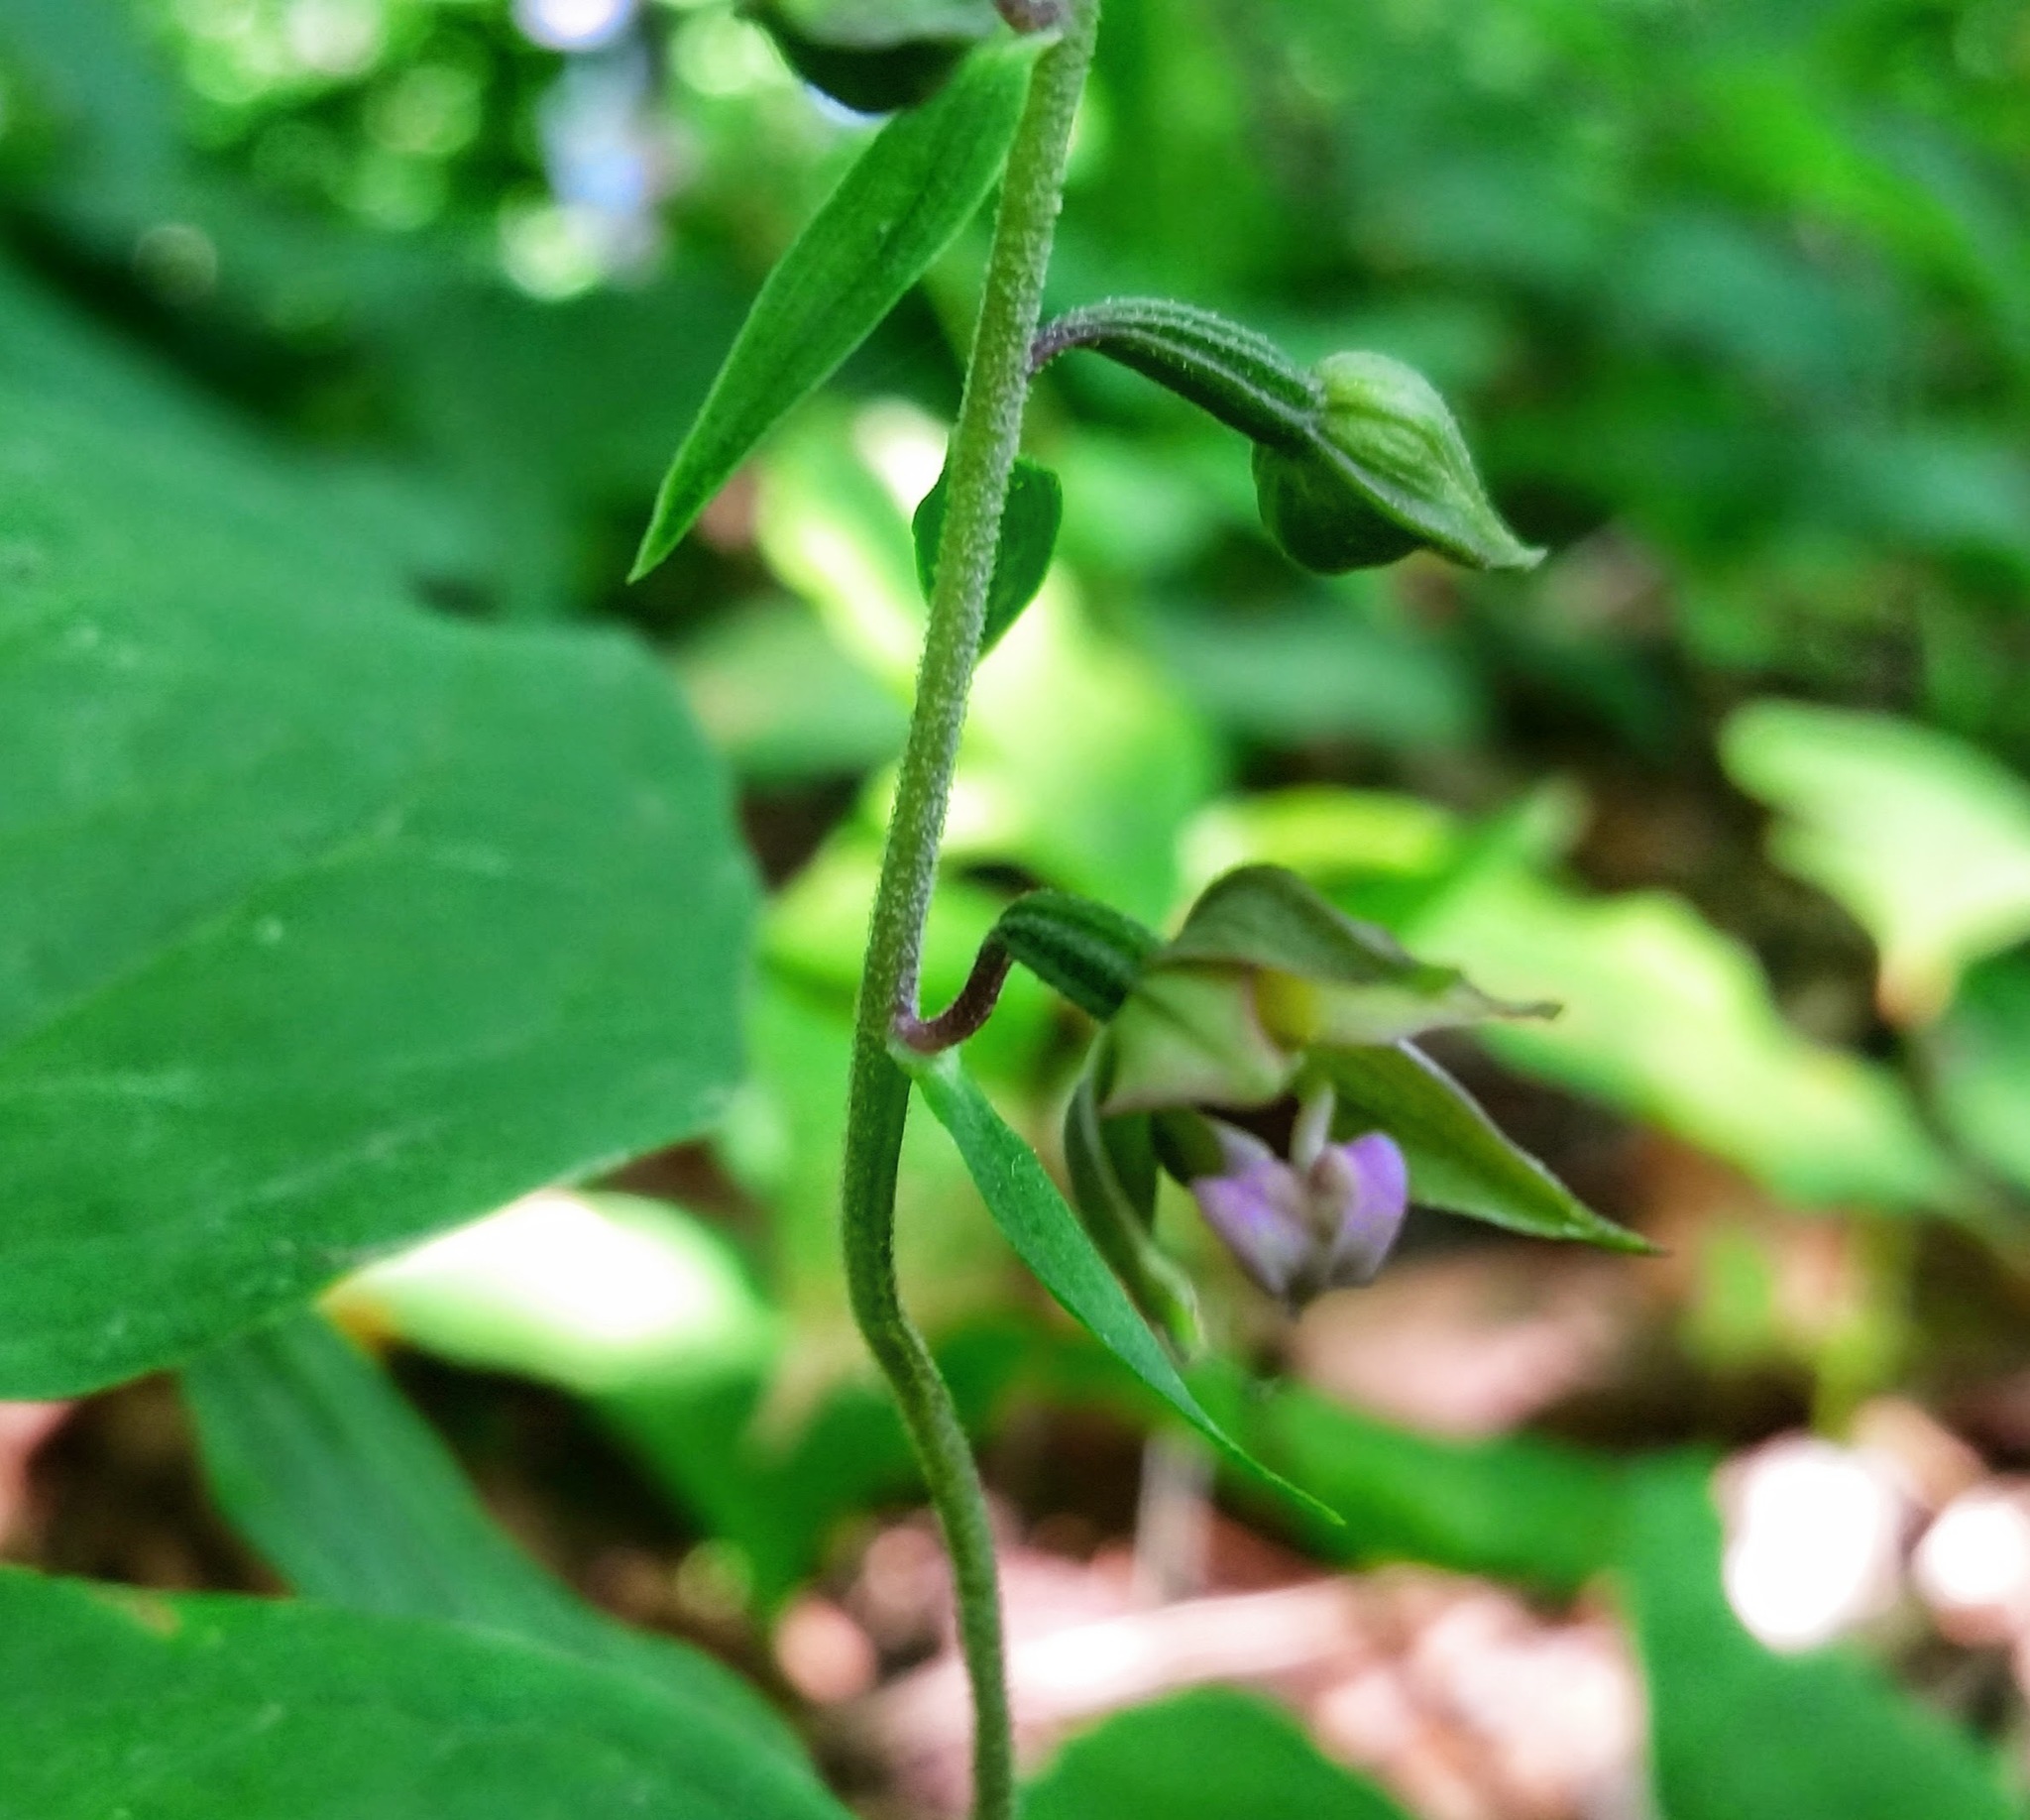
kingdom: Plantae
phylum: Tracheophyta
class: Liliopsida
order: Asparagales
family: Orchidaceae
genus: Epipactis
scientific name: Epipactis helleborine
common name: Broad-leaved helleborine
